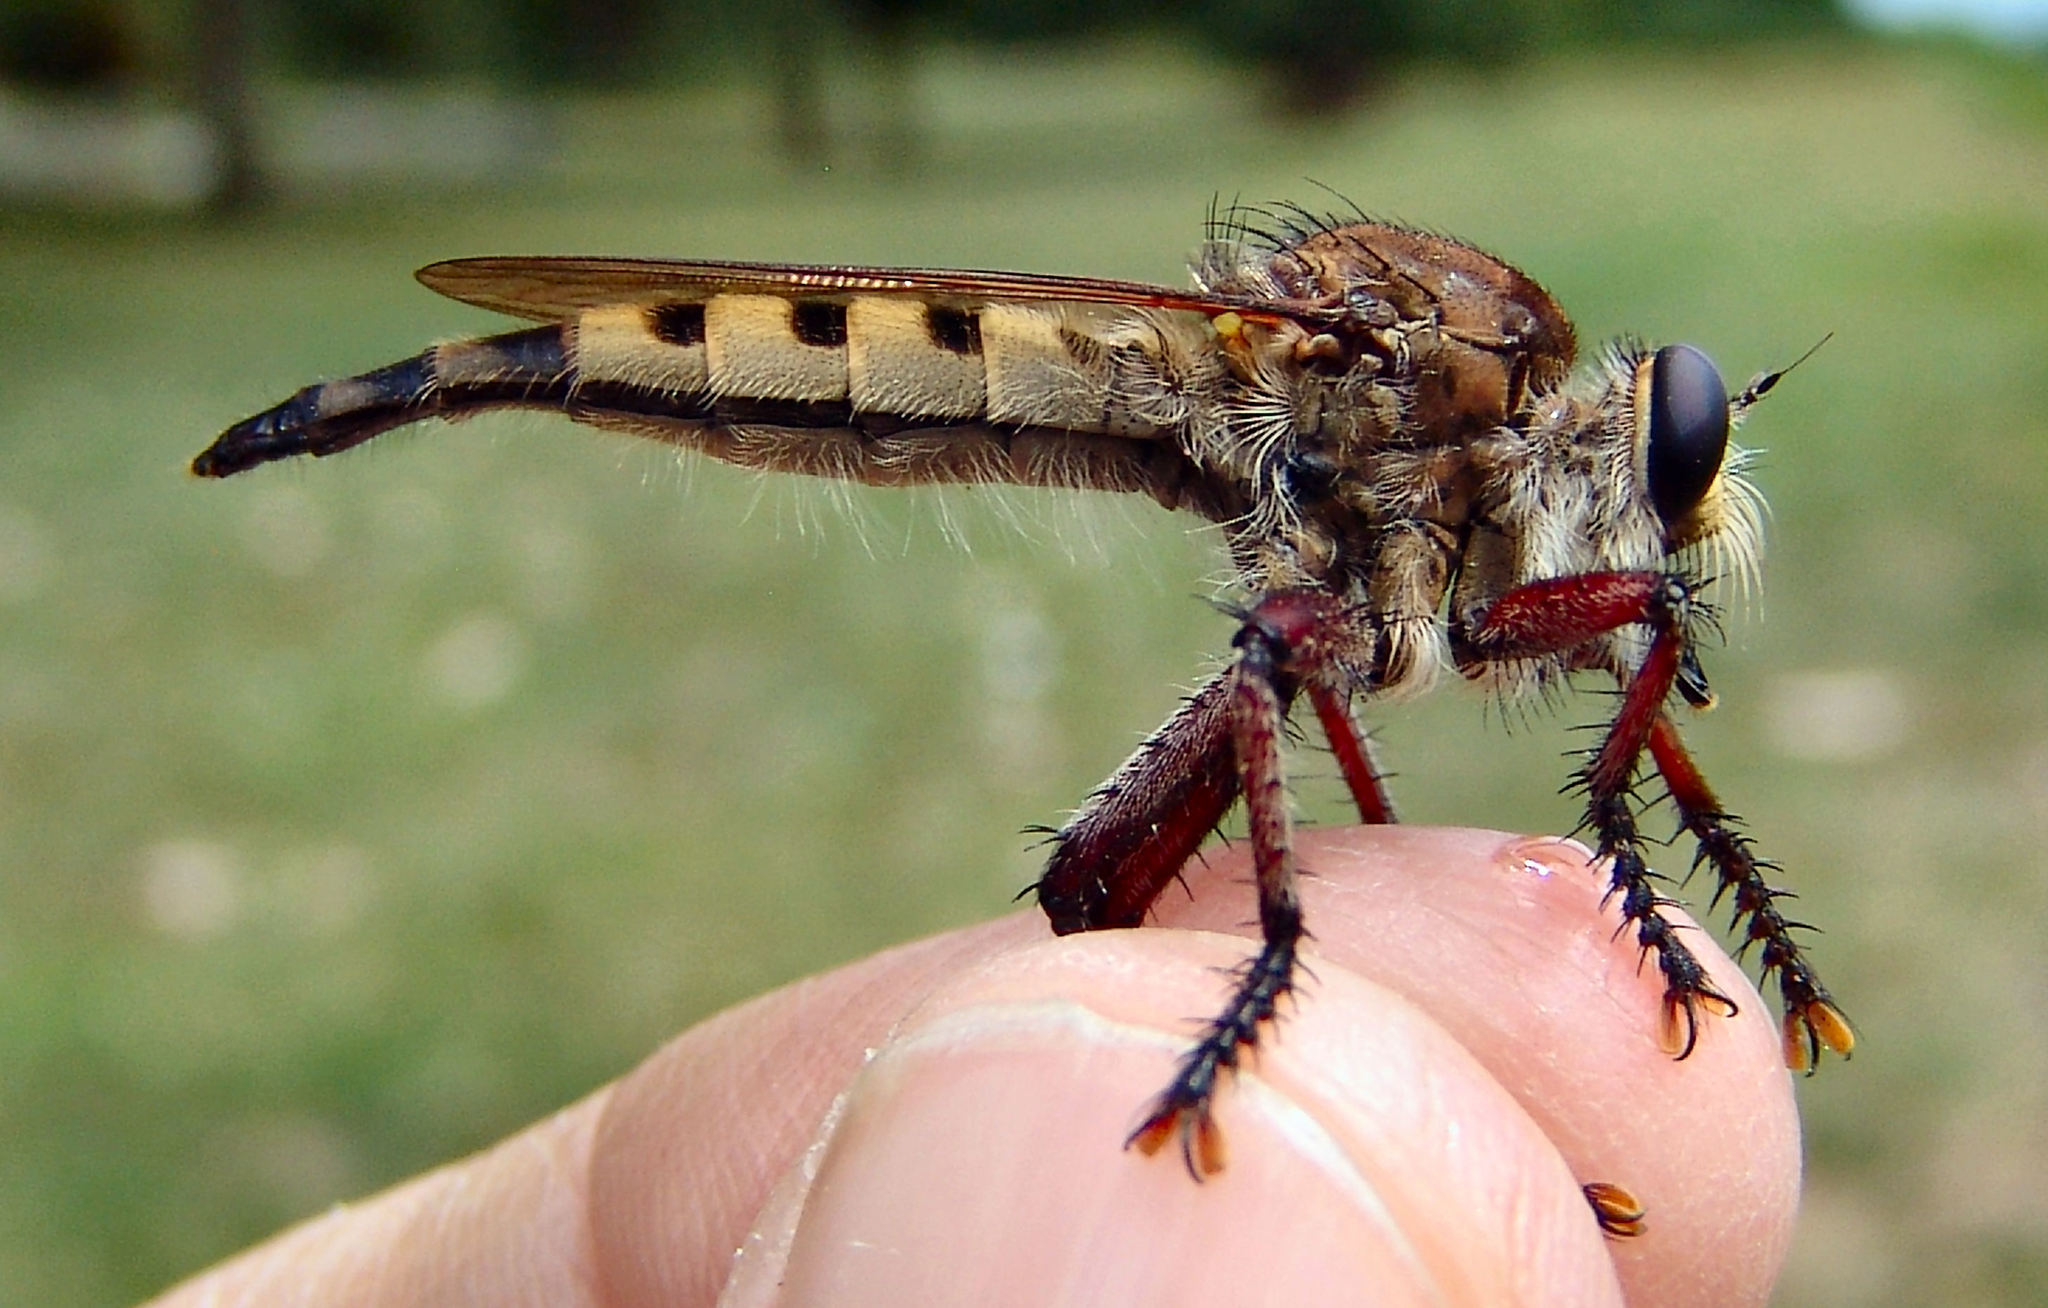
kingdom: Animalia
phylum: Arthropoda
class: Insecta
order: Diptera
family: Asilidae
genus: Promachus
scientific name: Promachus hinei
